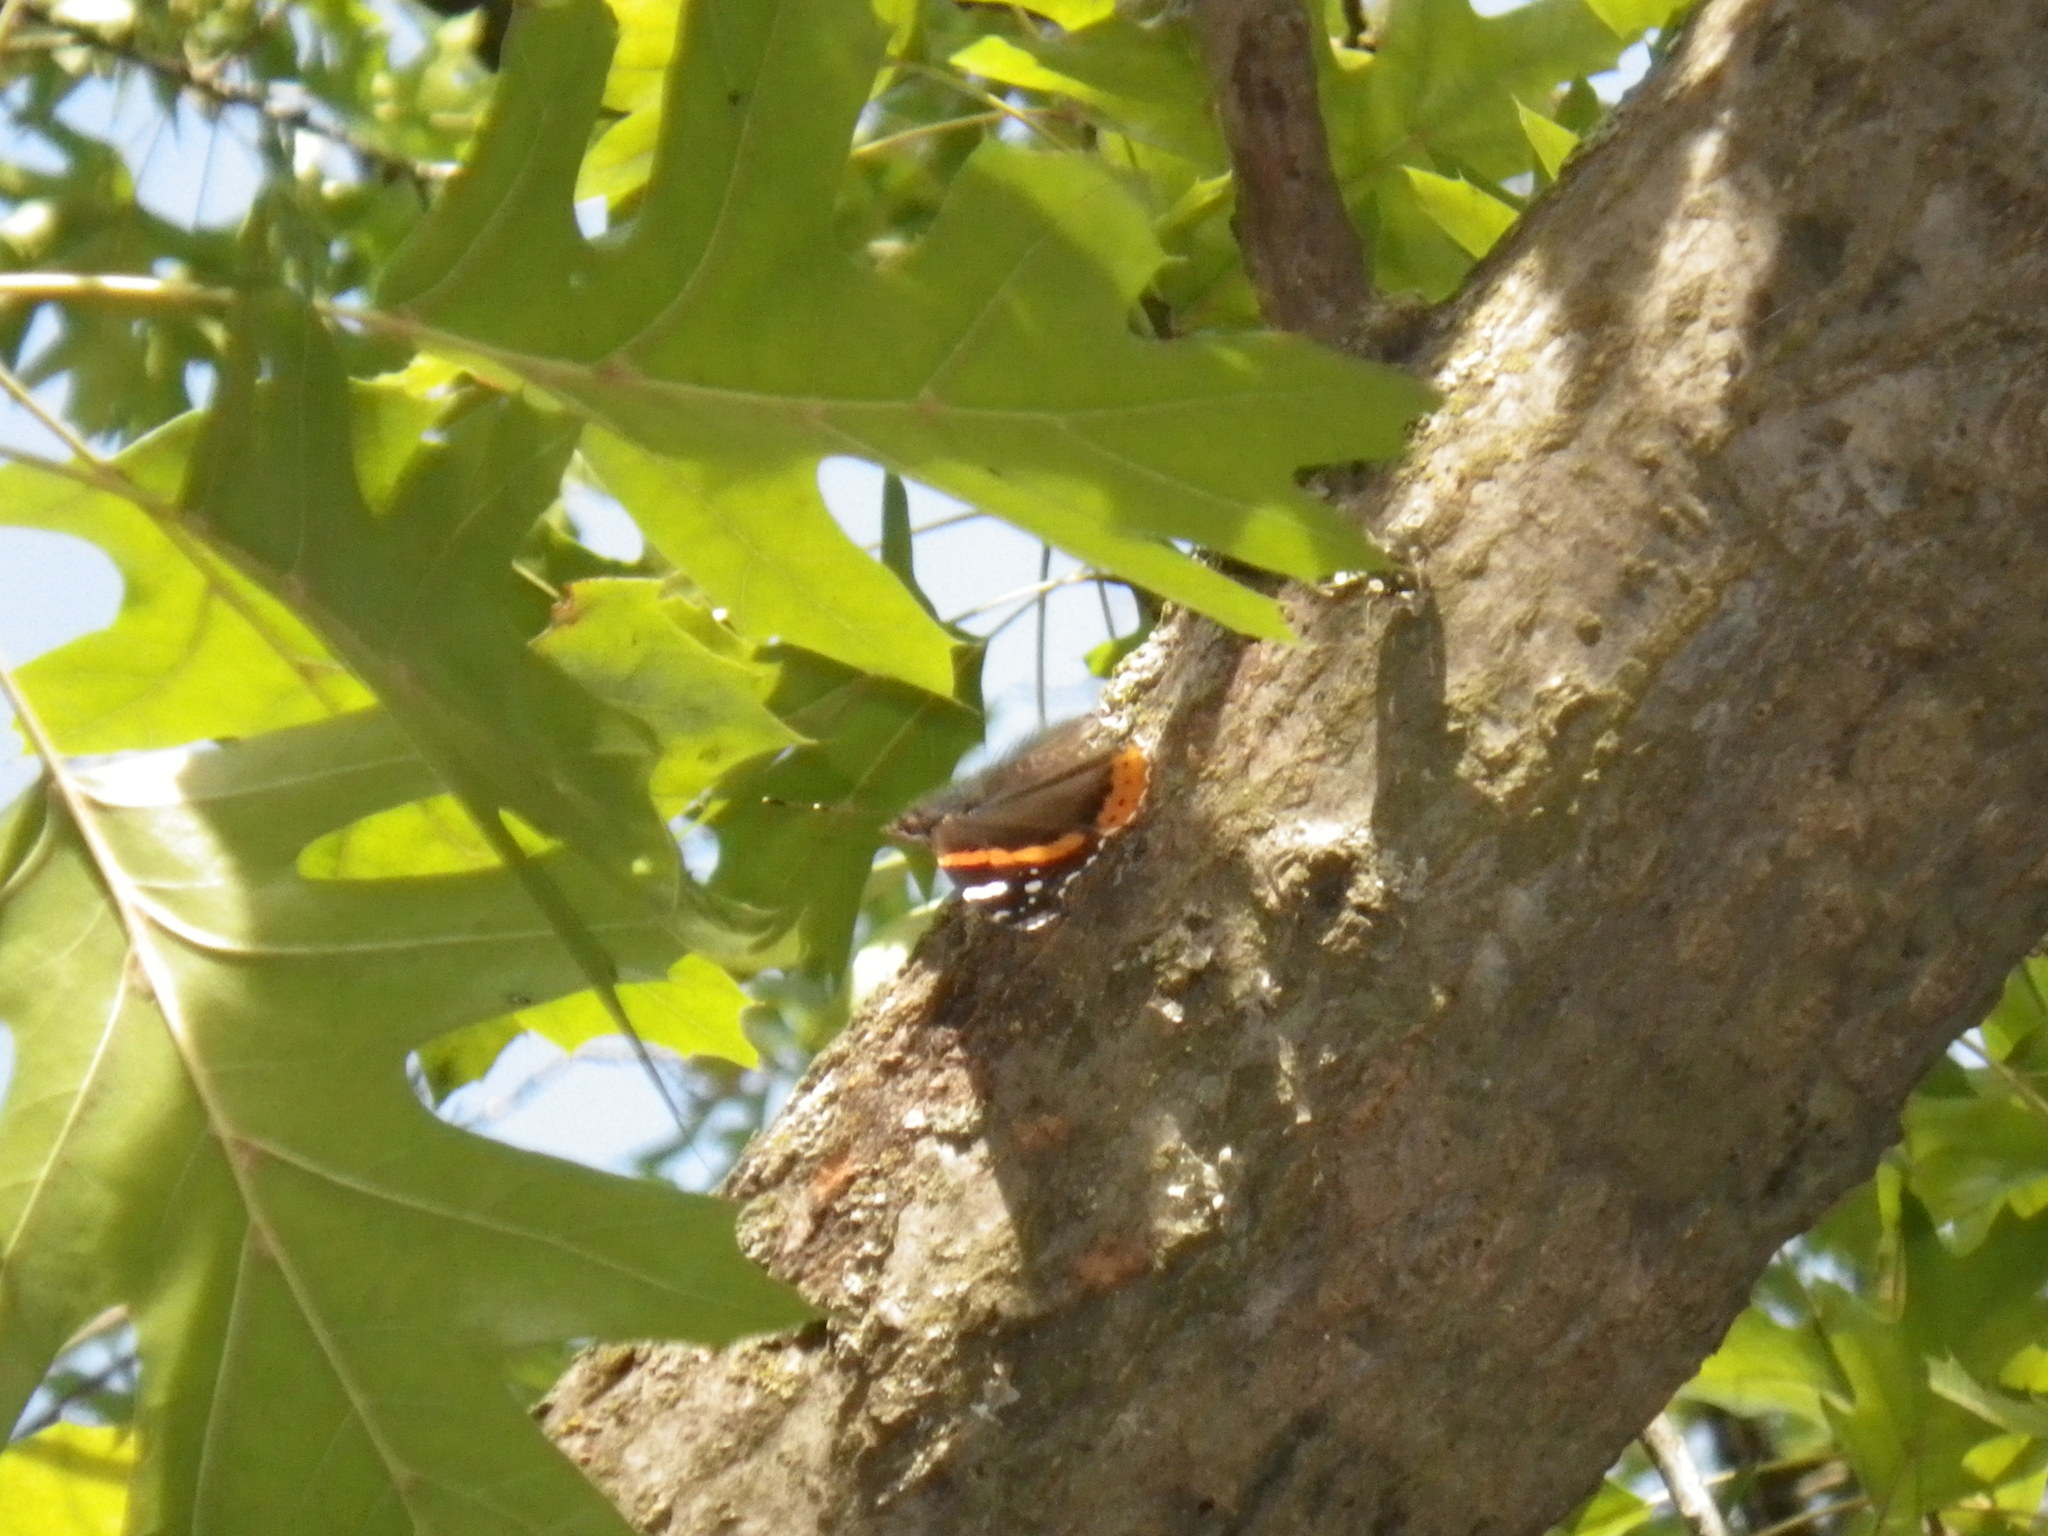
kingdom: Animalia
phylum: Arthropoda
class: Insecta
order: Lepidoptera
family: Nymphalidae
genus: Vanessa
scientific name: Vanessa atalanta
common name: Red admiral
